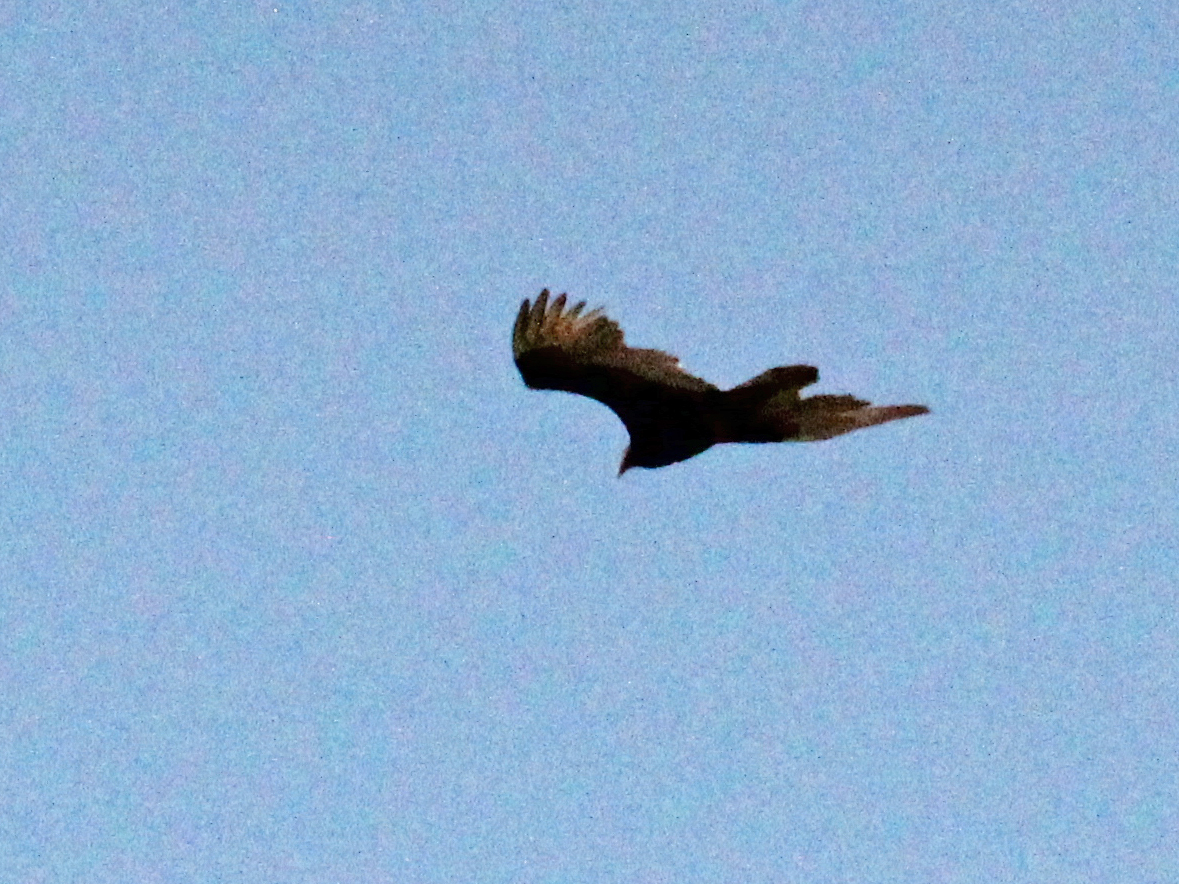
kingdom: Animalia
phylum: Chordata
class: Aves
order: Accipitriformes
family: Cathartidae
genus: Cathartes
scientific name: Cathartes aura
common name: Turkey vulture
